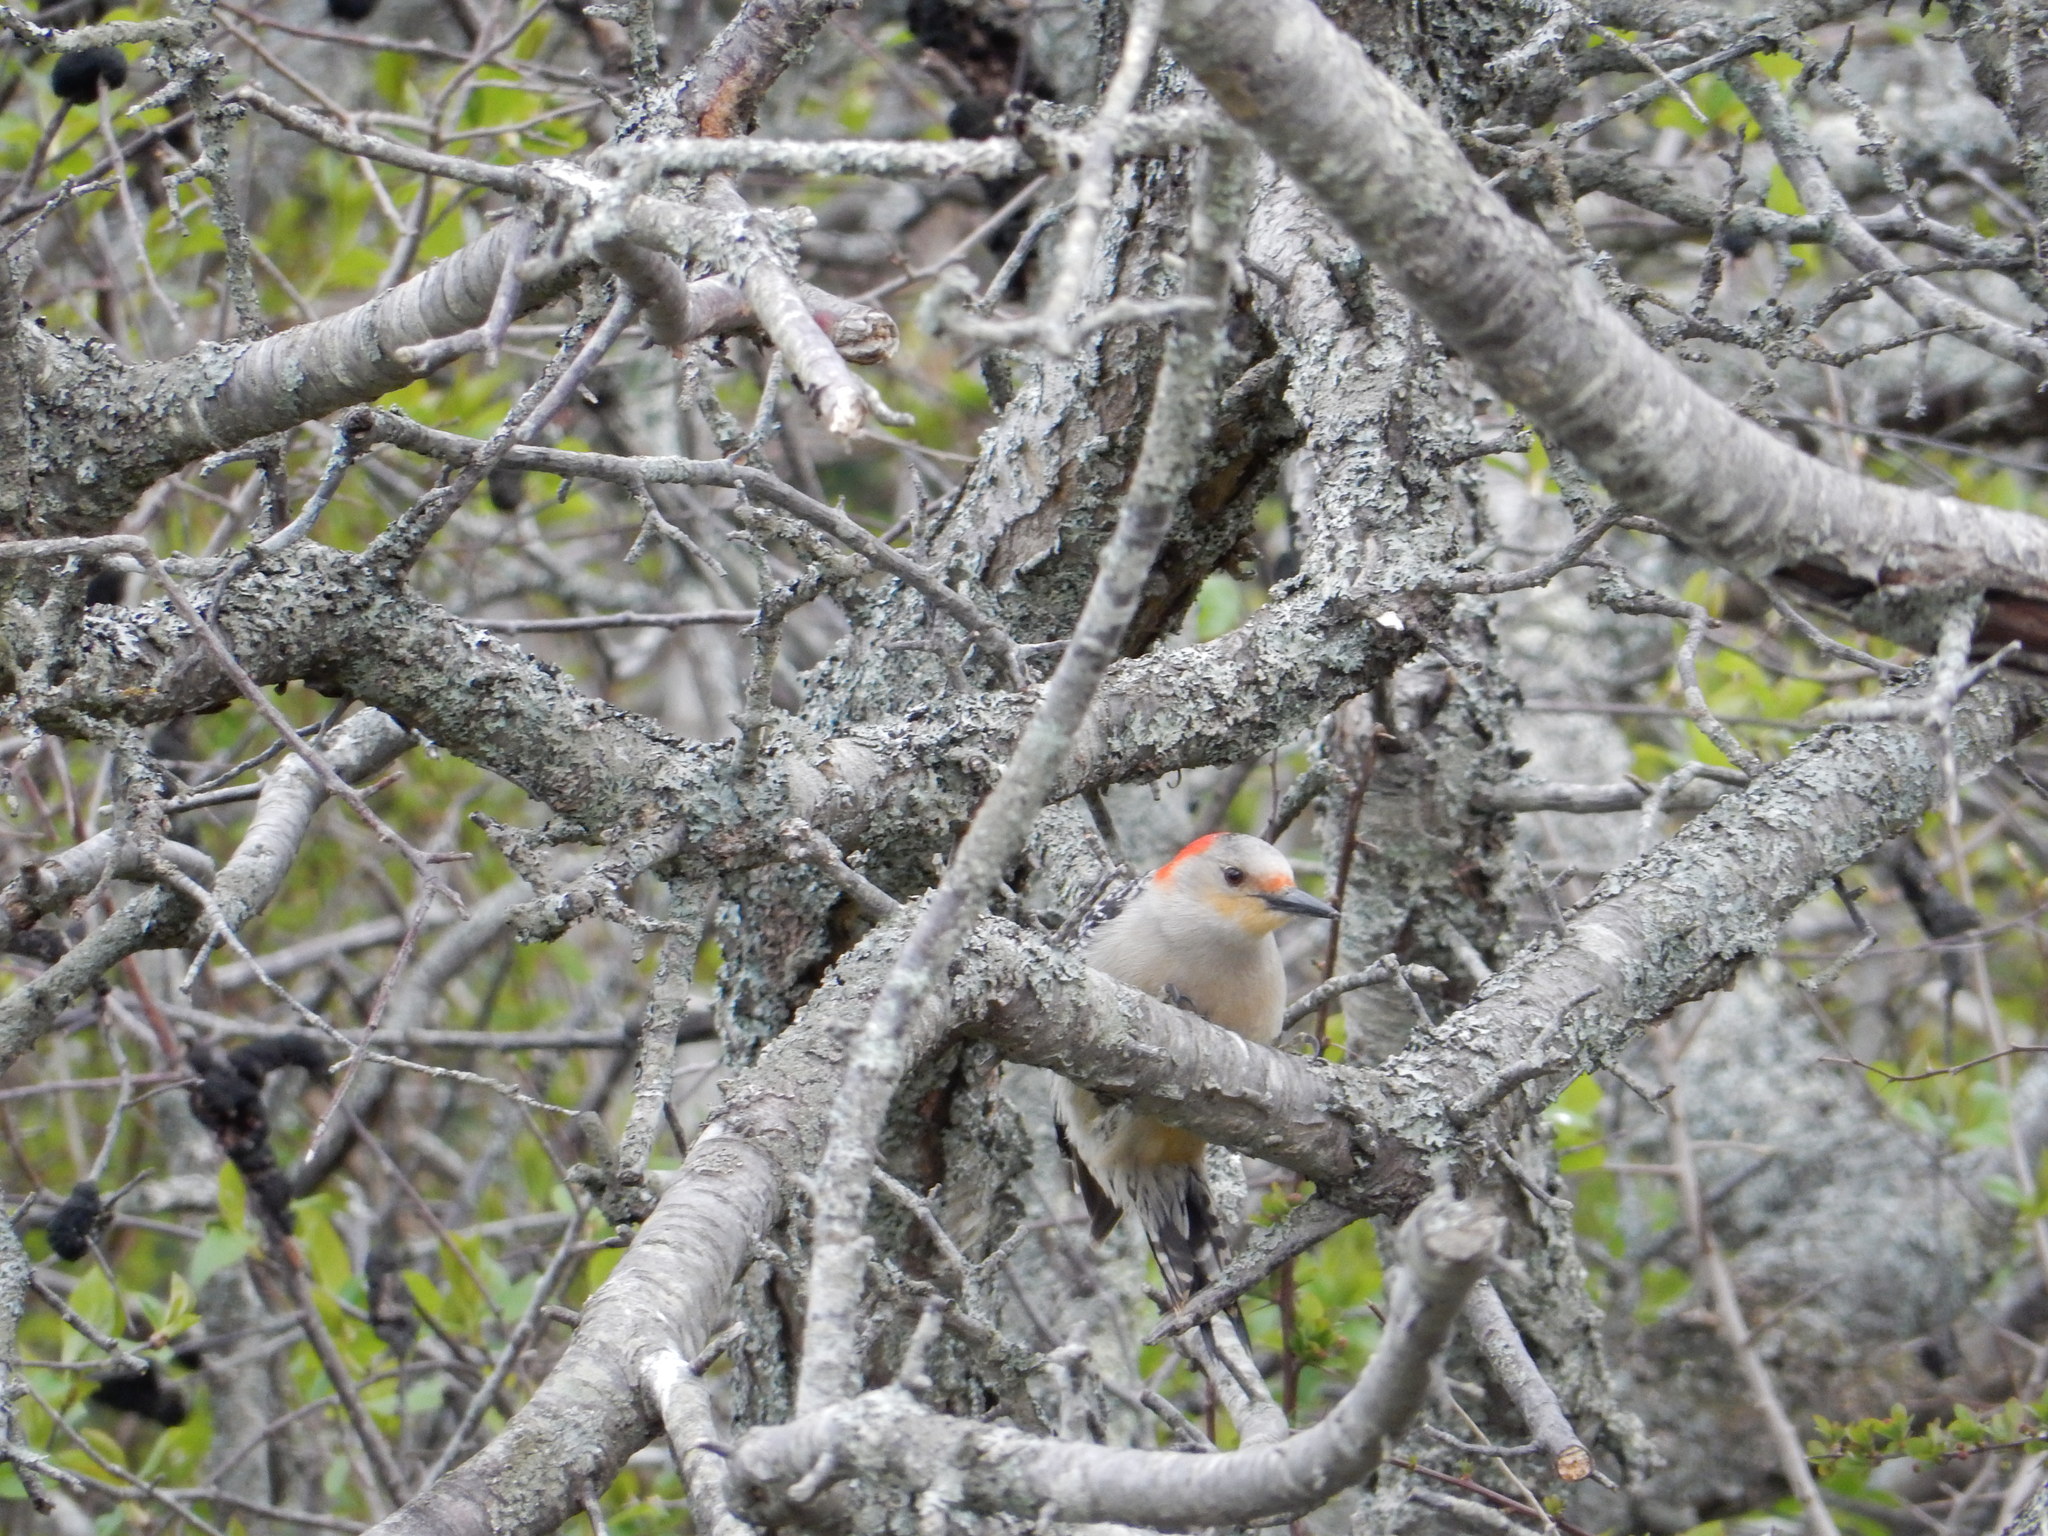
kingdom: Animalia
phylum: Chordata
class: Aves
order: Piciformes
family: Picidae
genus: Melanerpes
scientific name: Melanerpes carolinus
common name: Red-bellied woodpecker
